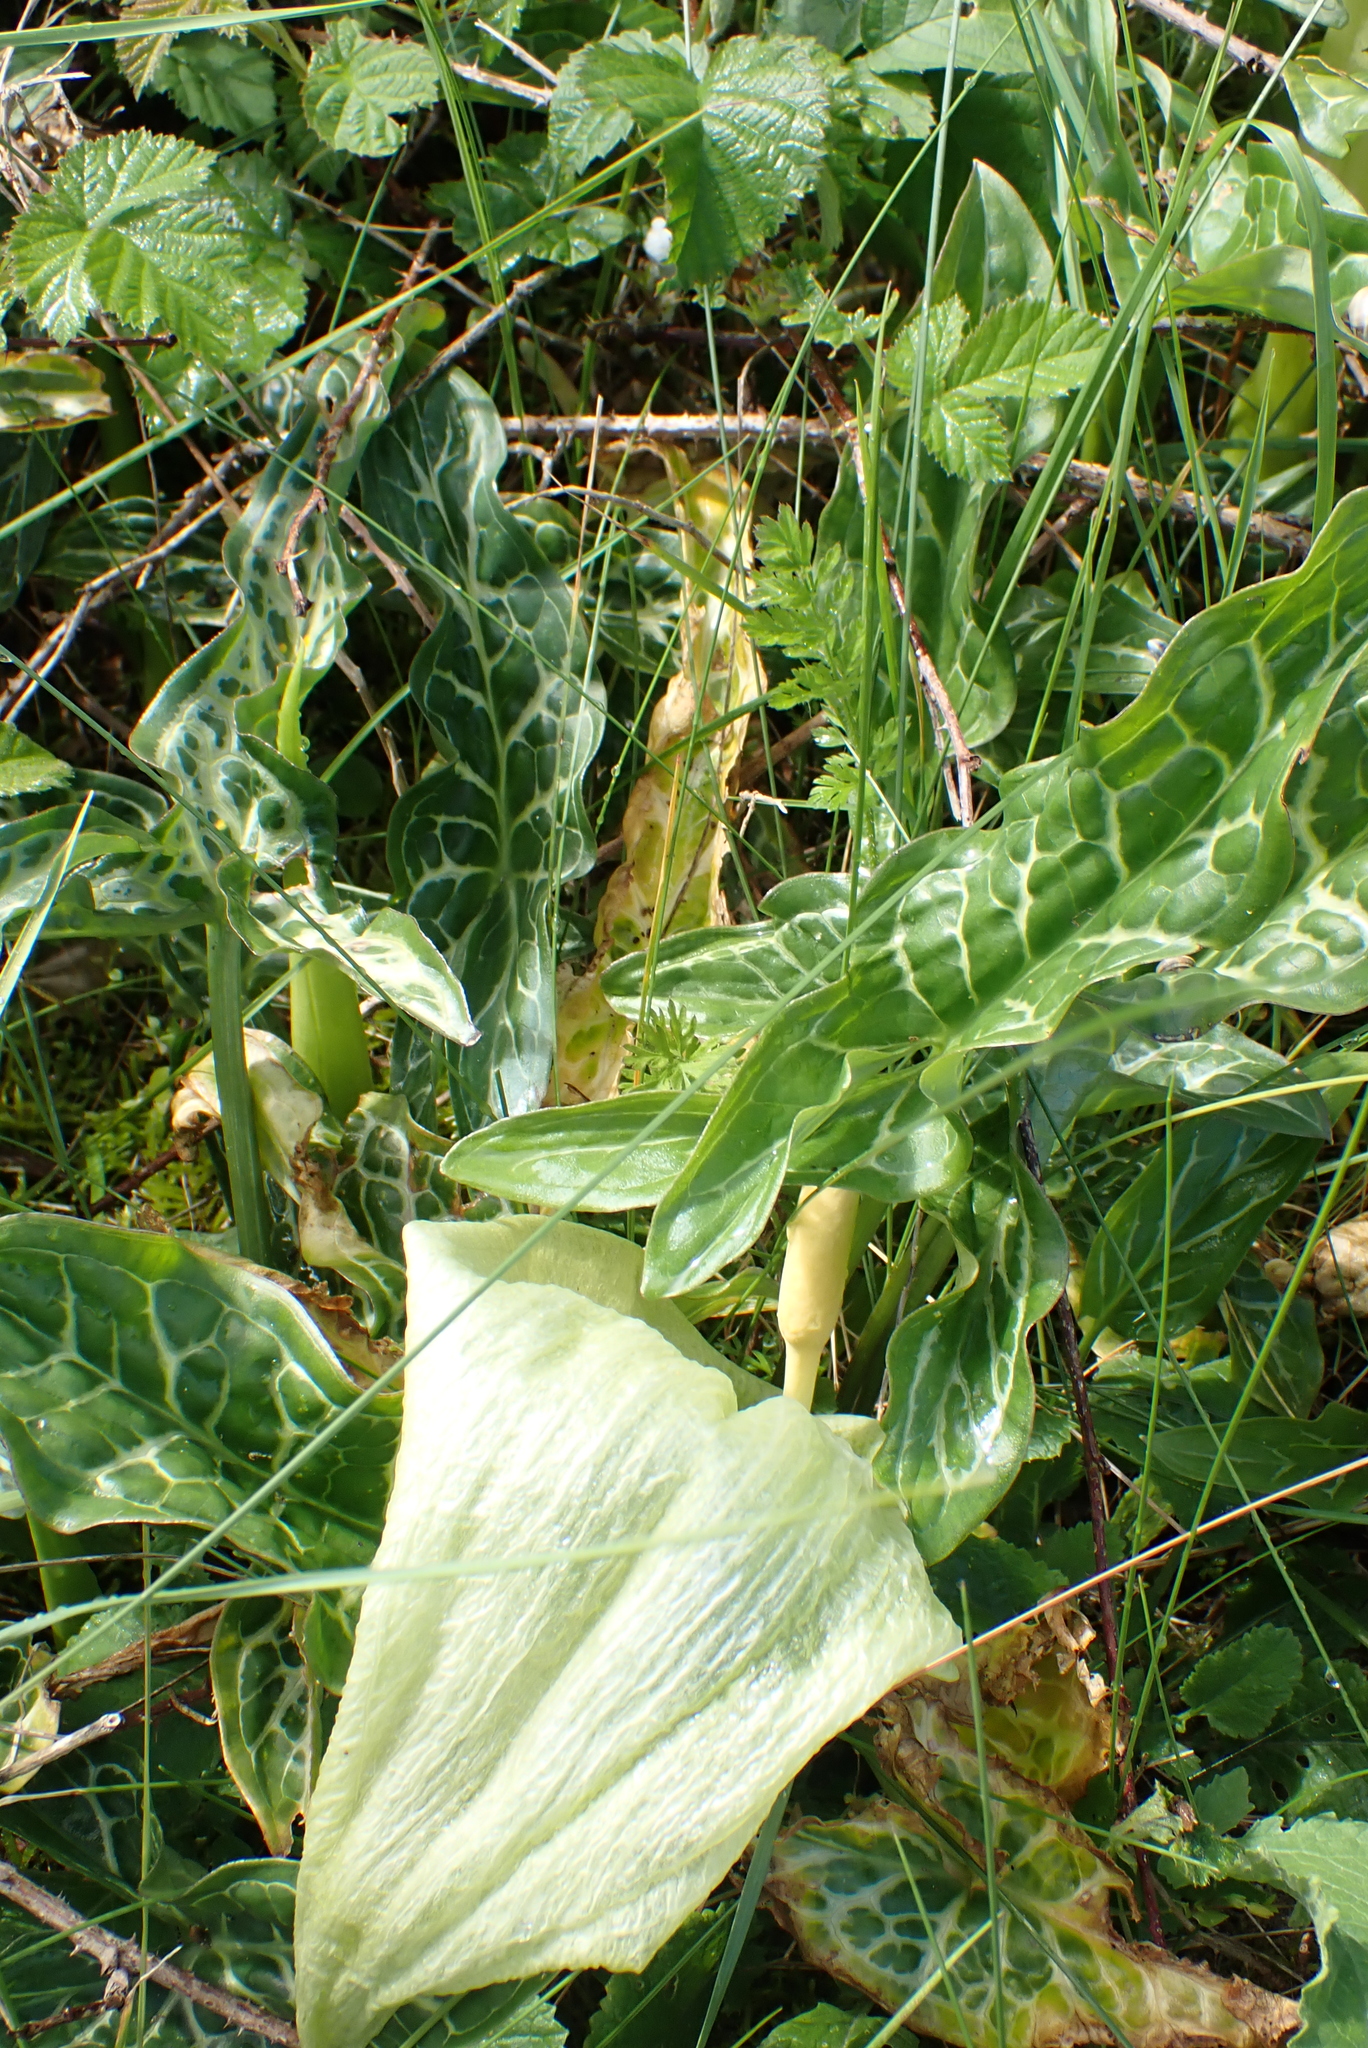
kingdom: Plantae
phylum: Tracheophyta
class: Liliopsida
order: Alismatales
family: Araceae
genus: Arum
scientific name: Arum italicum
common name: Italian lords-and-ladies
